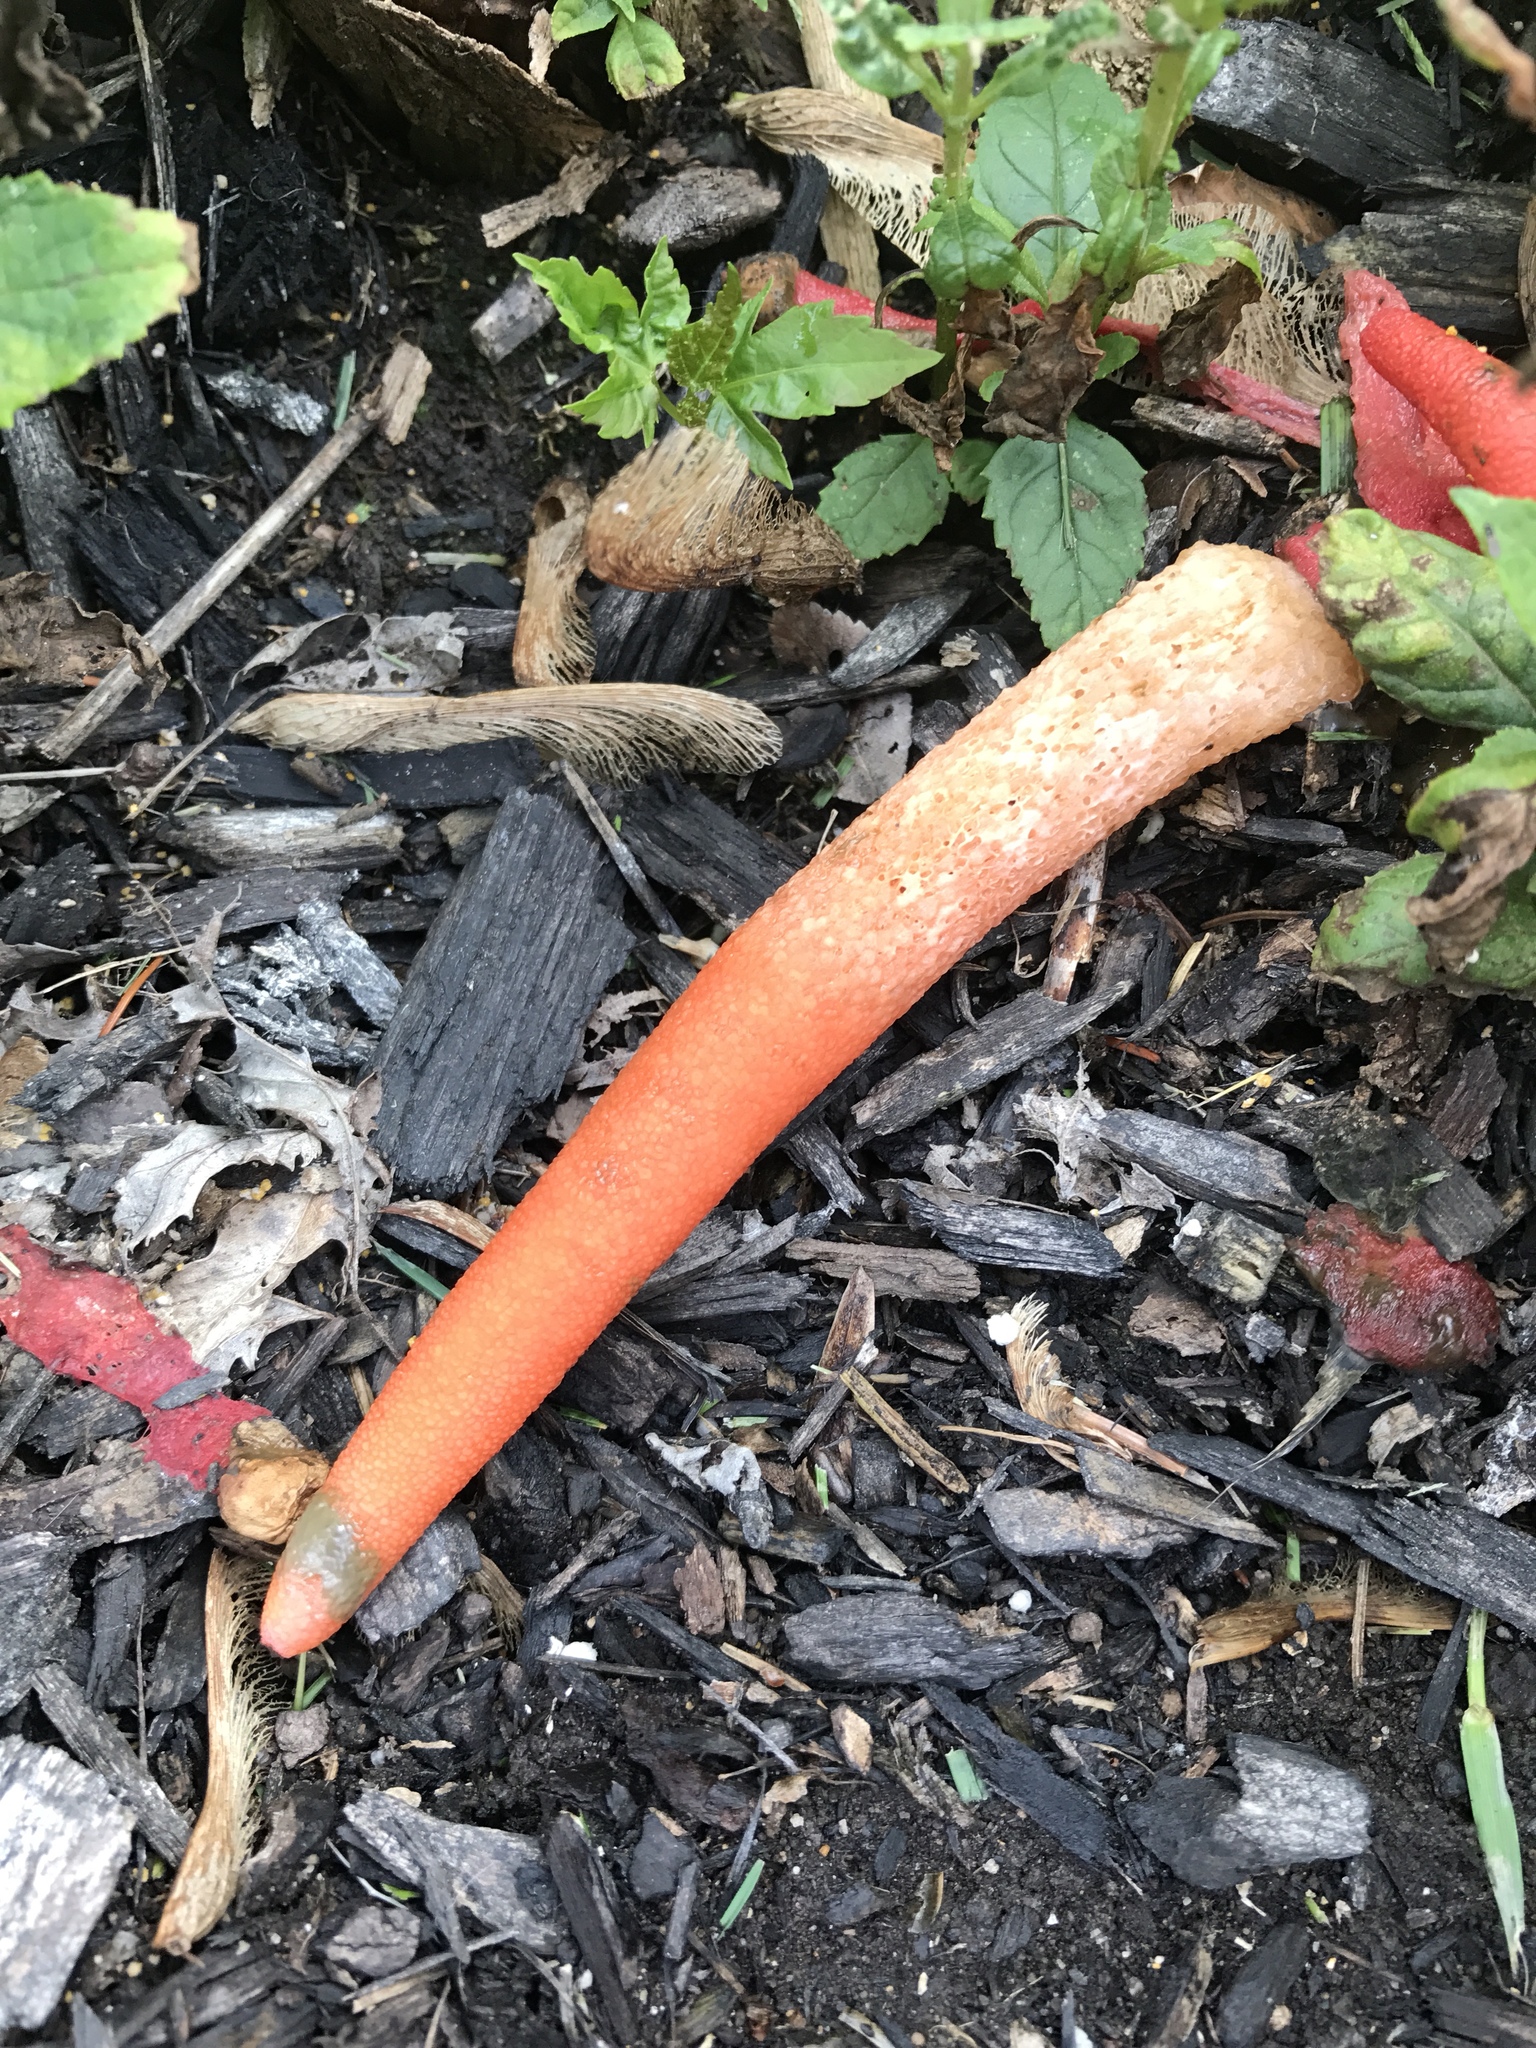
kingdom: Fungi
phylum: Basidiomycota
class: Agaricomycetes
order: Phallales
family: Phallaceae
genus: Mutinus
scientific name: Mutinus elegans
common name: Devil's dipstick
